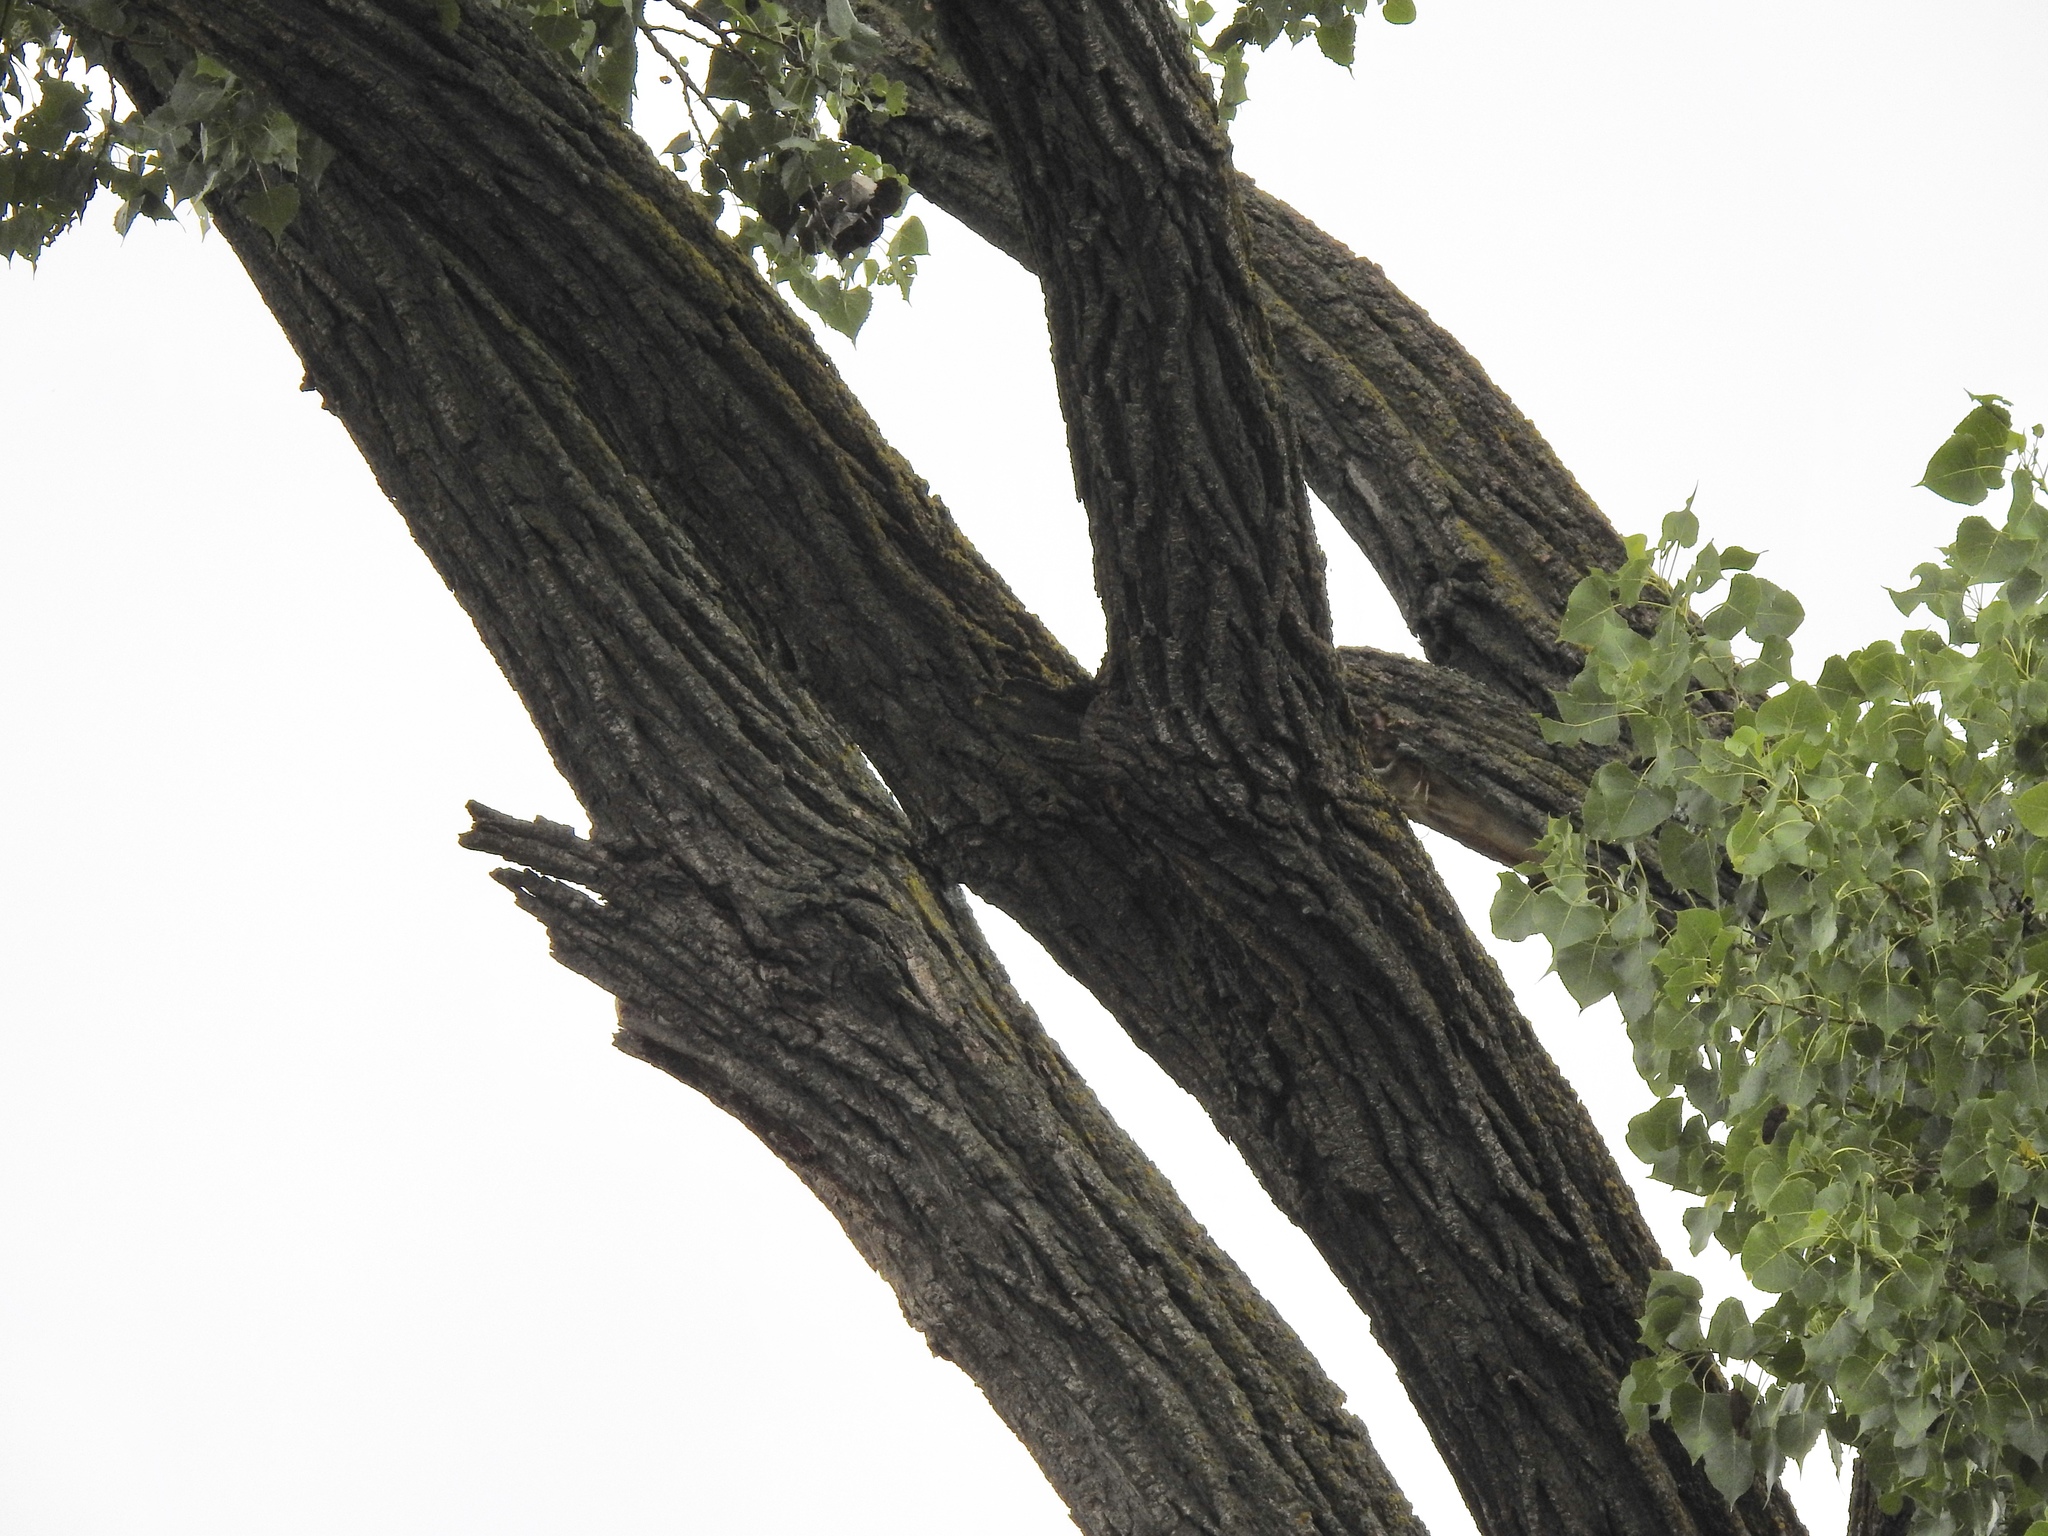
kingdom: Plantae
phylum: Tracheophyta
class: Magnoliopsida
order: Malpighiales
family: Salicaceae
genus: Populus
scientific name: Populus deltoides
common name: Eastern cottonwood
